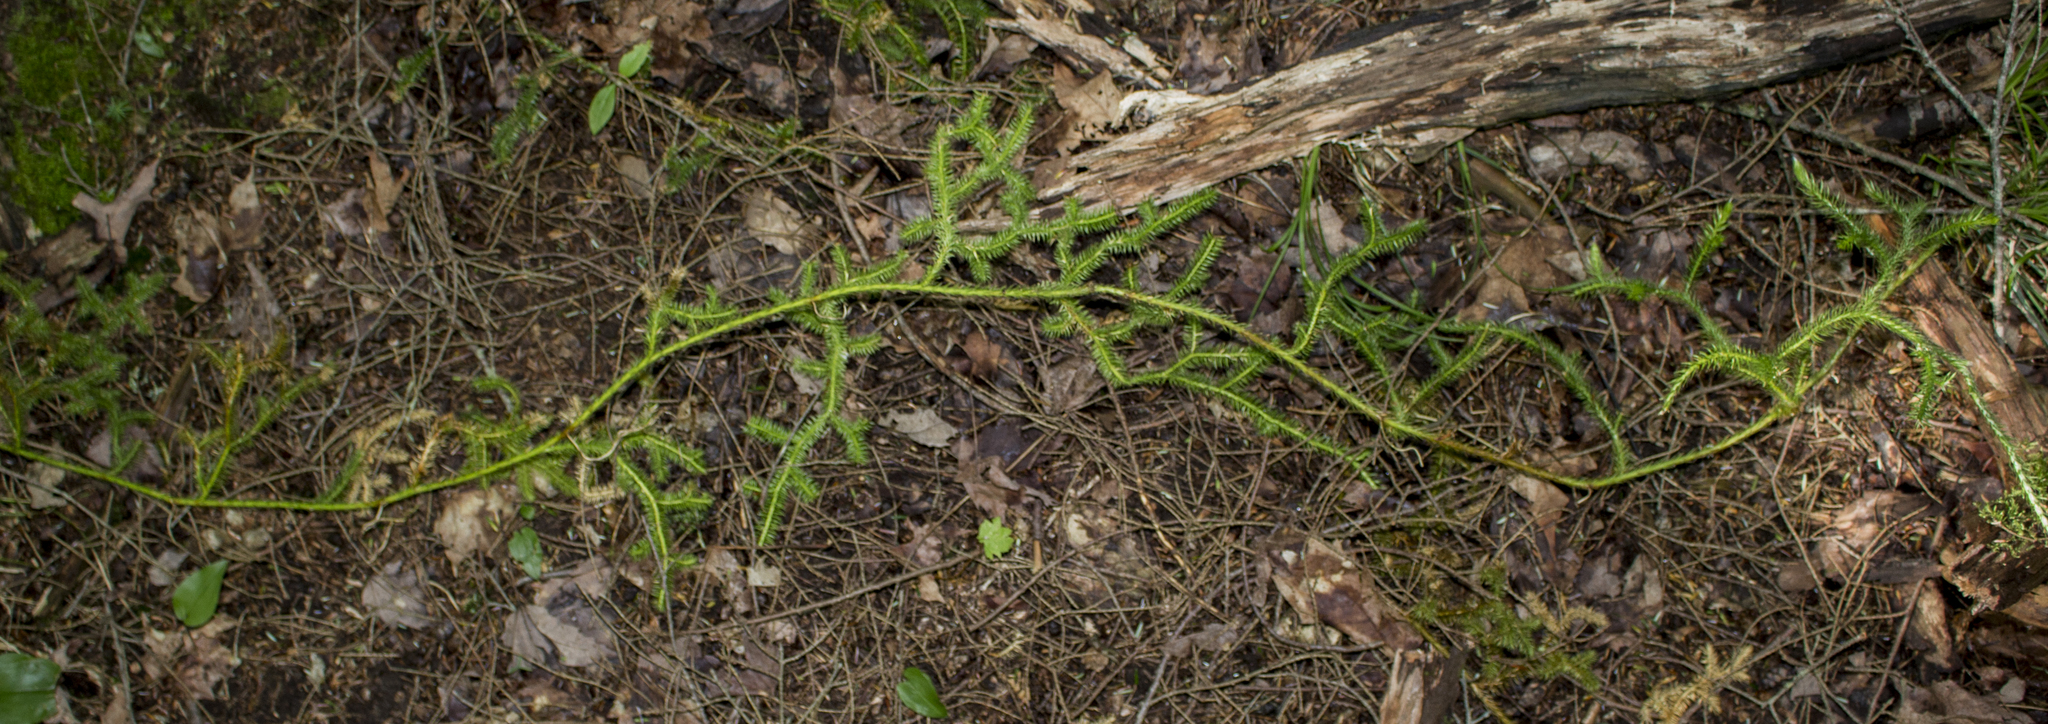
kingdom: Plantae
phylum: Tracheophyta
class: Lycopodiopsida
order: Lycopodiales
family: Lycopodiaceae
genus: Lycopodium
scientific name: Lycopodium clavatum
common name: Stag's-horn clubmoss
